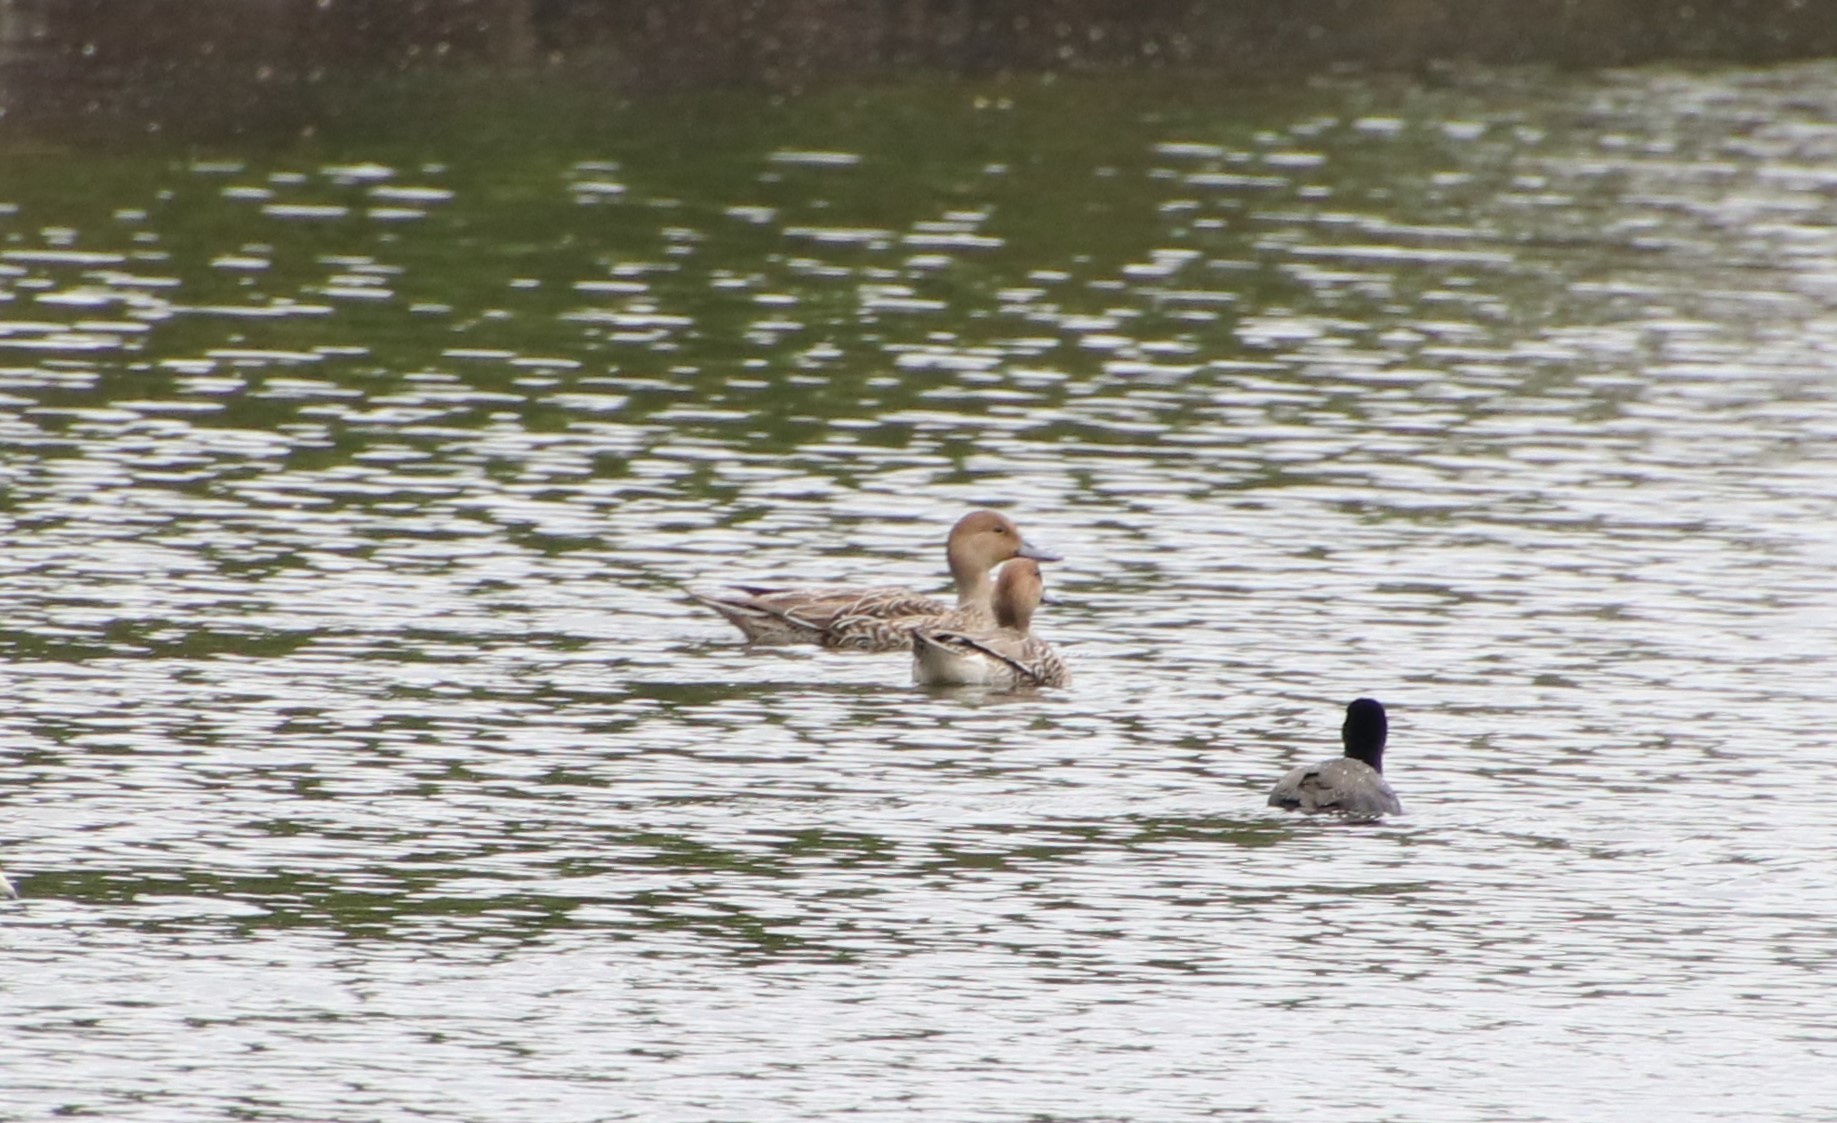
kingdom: Animalia
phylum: Chordata
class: Aves
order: Anseriformes
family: Anatidae
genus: Anas
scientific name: Anas acuta
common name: Northern pintail
